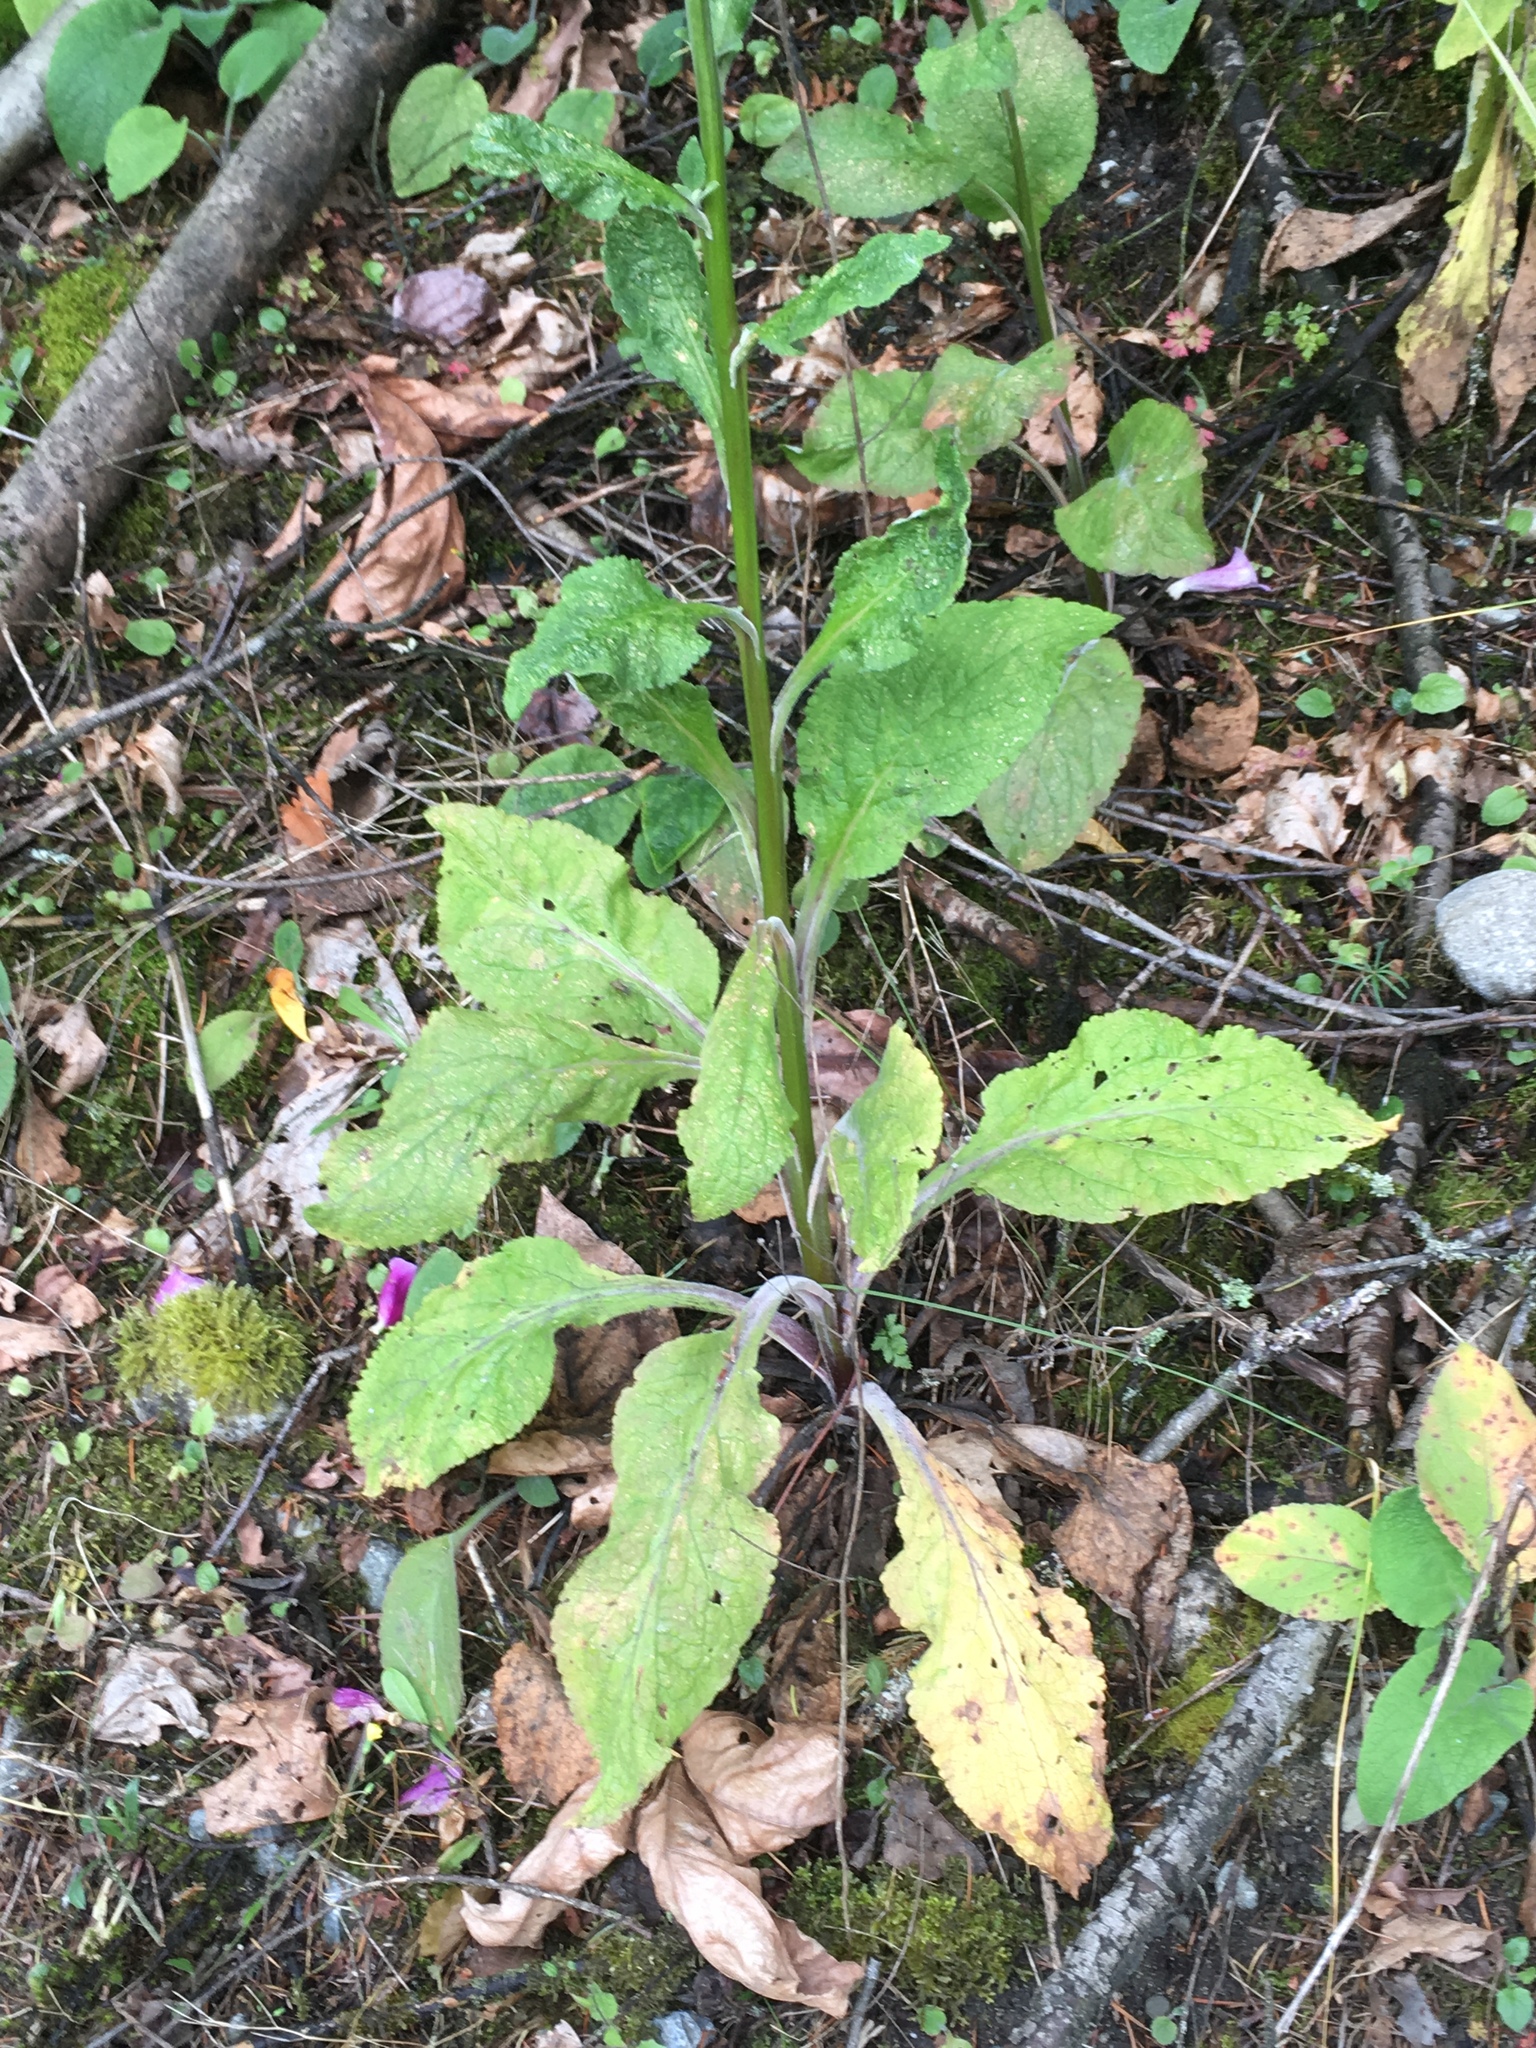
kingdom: Plantae
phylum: Tracheophyta
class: Magnoliopsida
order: Lamiales
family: Plantaginaceae
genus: Digitalis
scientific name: Digitalis purpurea
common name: Foxglove
